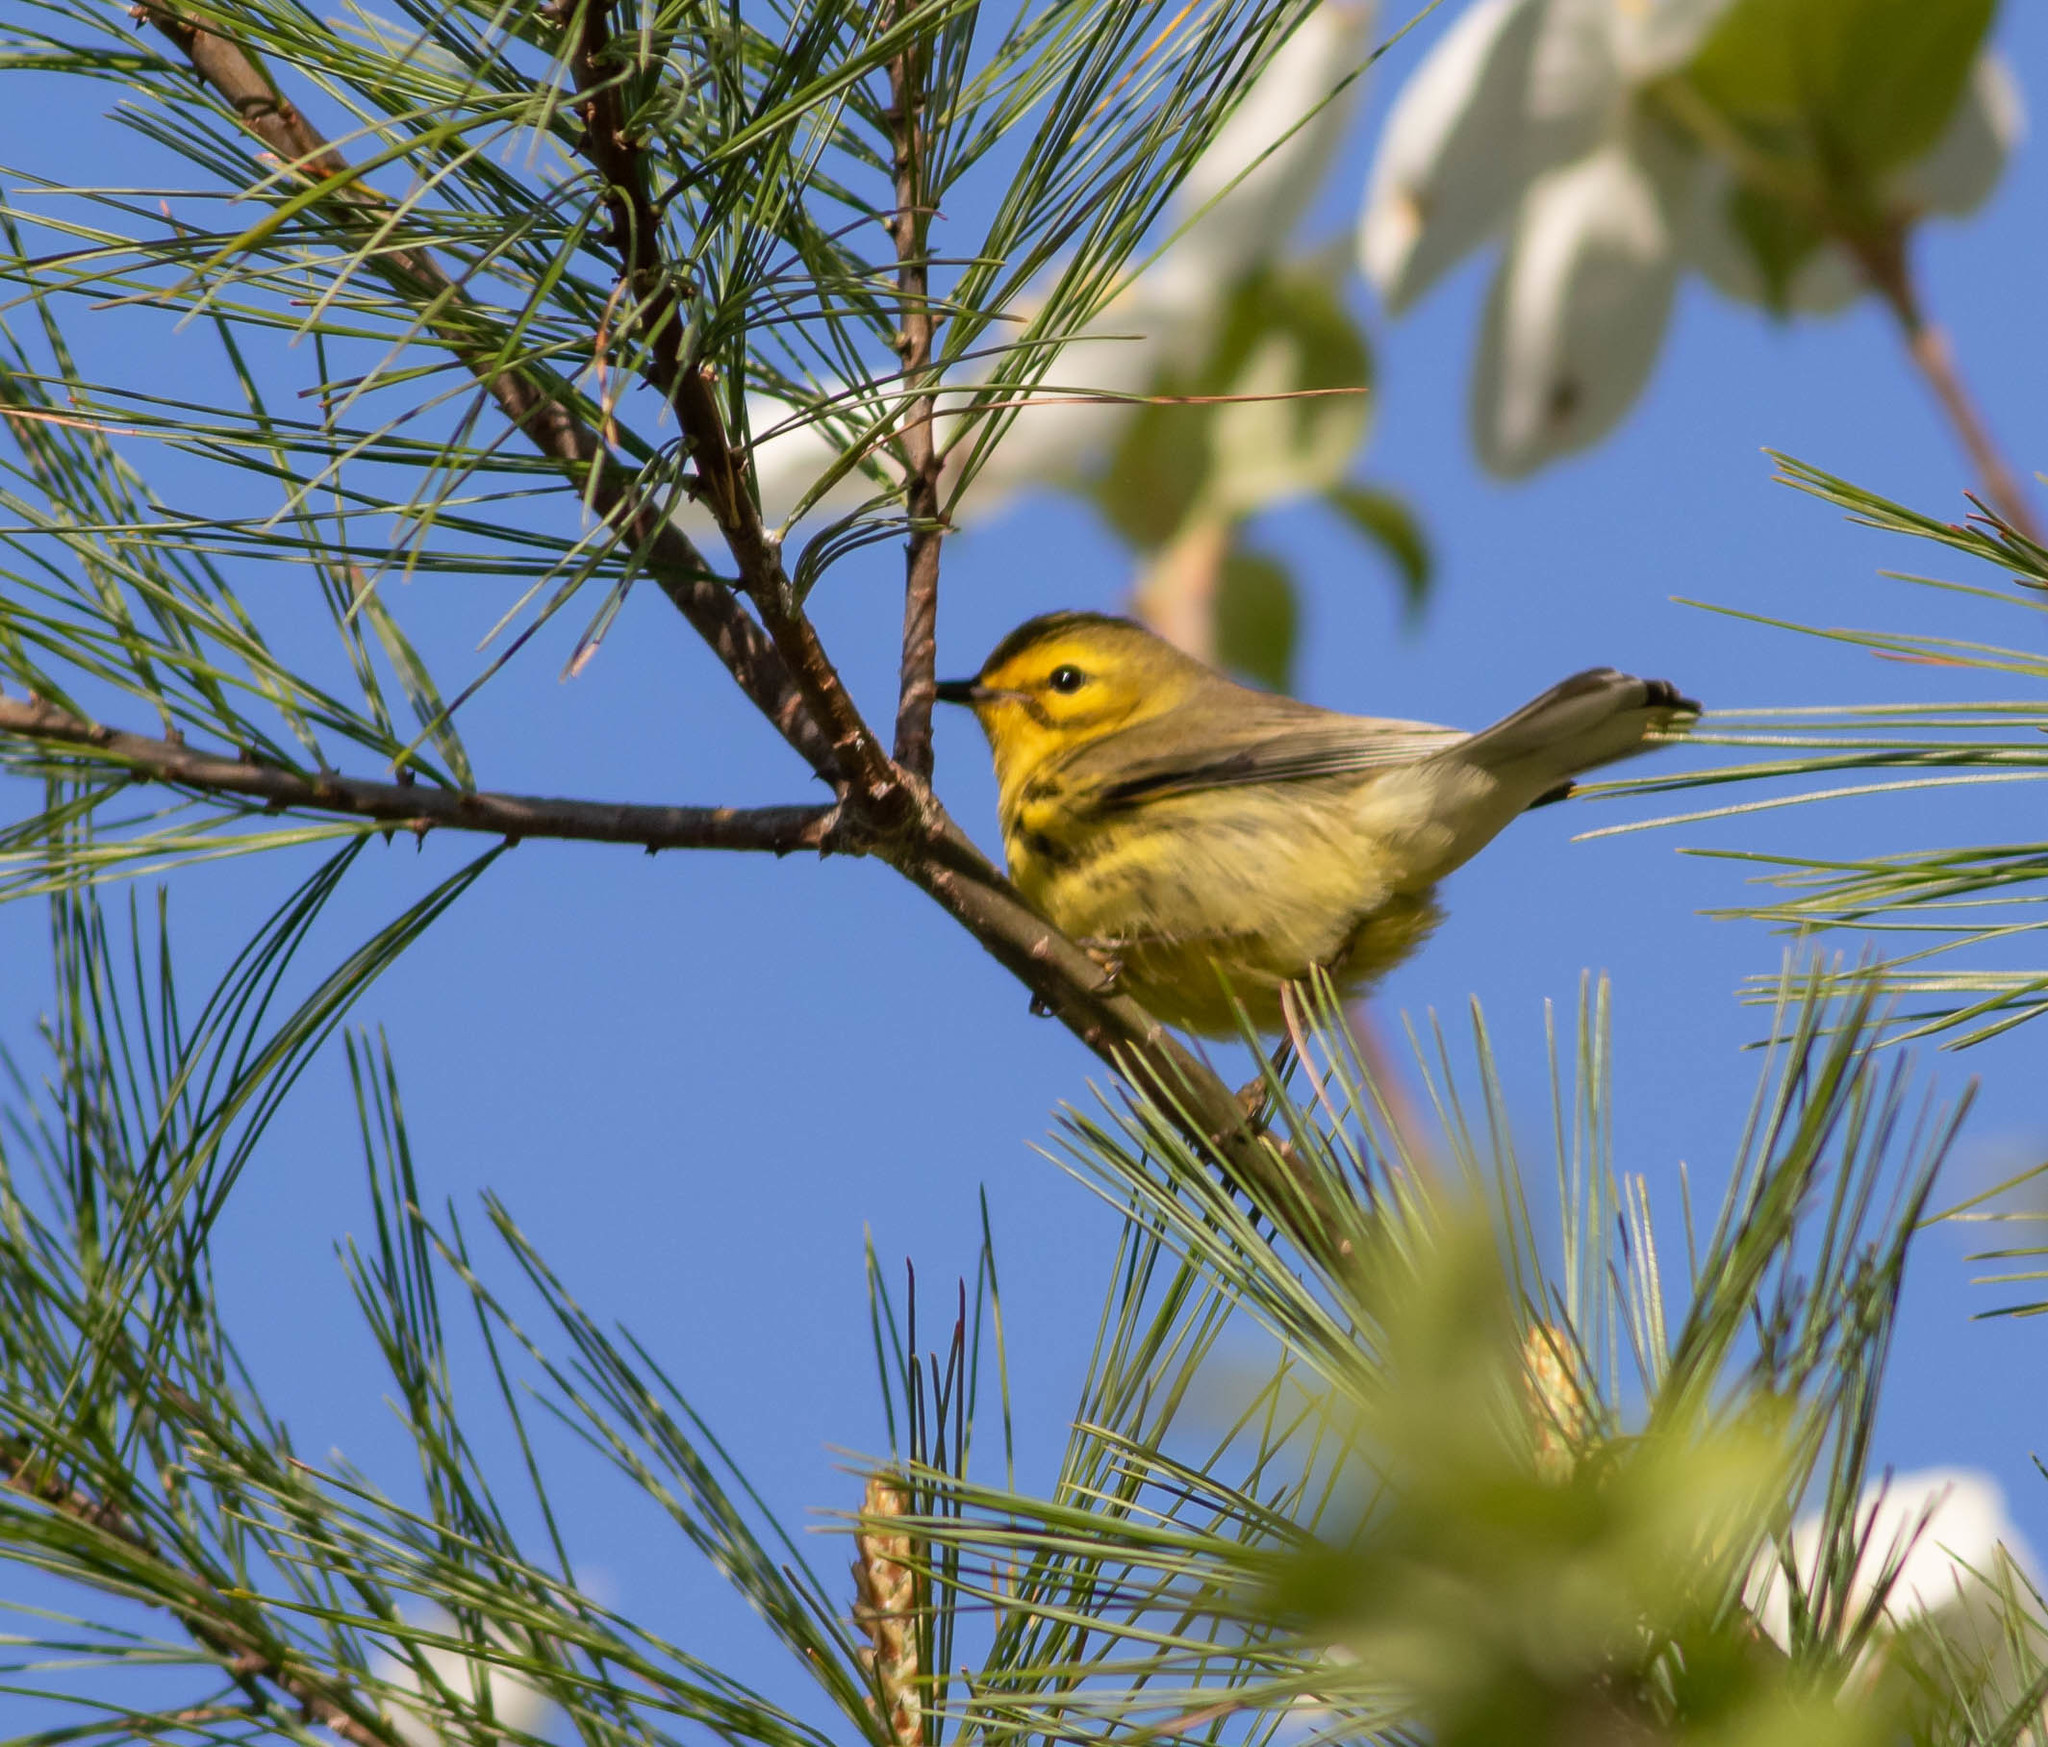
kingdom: Animalia
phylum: Chordata
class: Aves
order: Passeriformes
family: Parulidae
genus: Setophaga
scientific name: Setophaga discolor
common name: Prairie warbler
